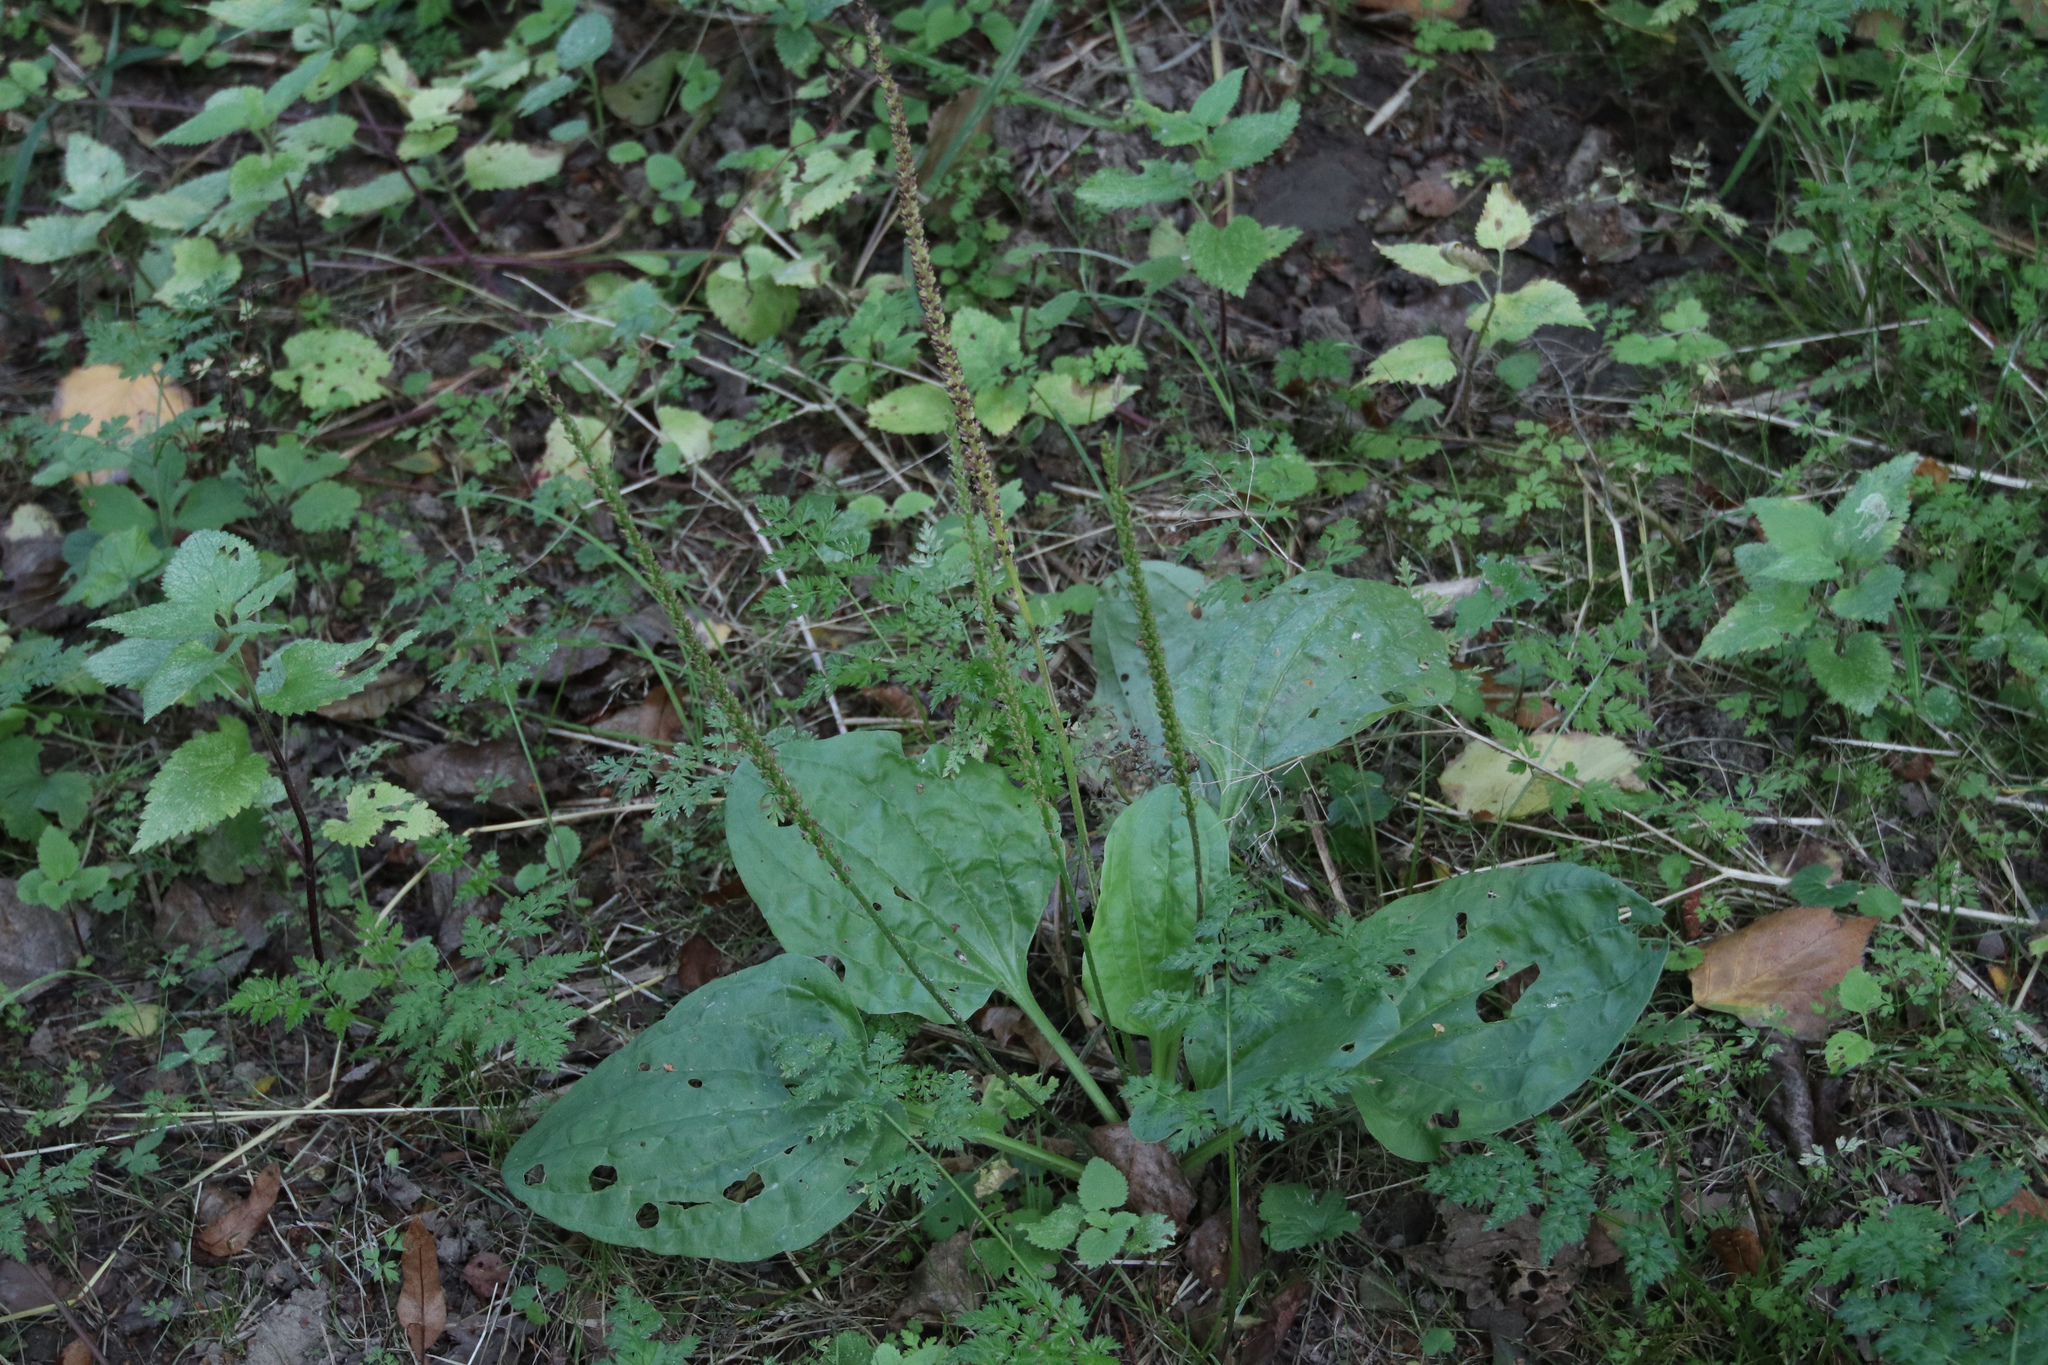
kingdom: Plantae
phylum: Tracheophyta
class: Magnoliopsida
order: Lamiales
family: Plantaginaceae
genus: Plantago
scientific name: Plantago major
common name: Common plantain
